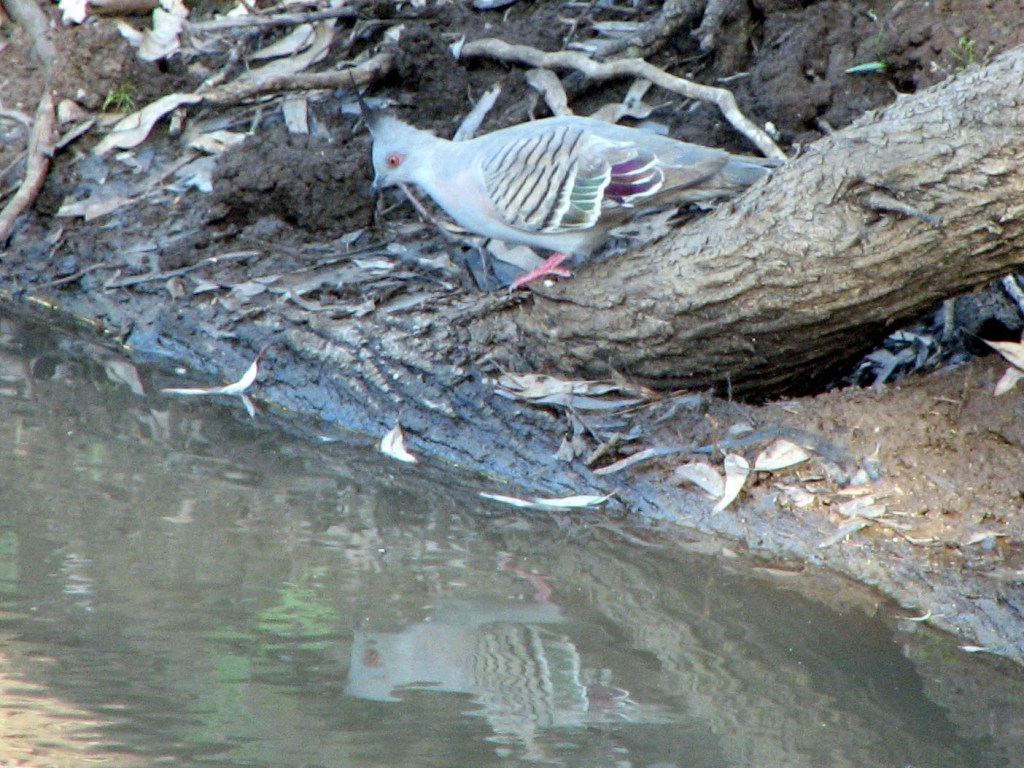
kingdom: Animalia
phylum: Chordata
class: Aves
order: Columbiformes
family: Columbidae
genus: Ocyphaps
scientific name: Ocyphaps lophotes
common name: Crested pigeon
